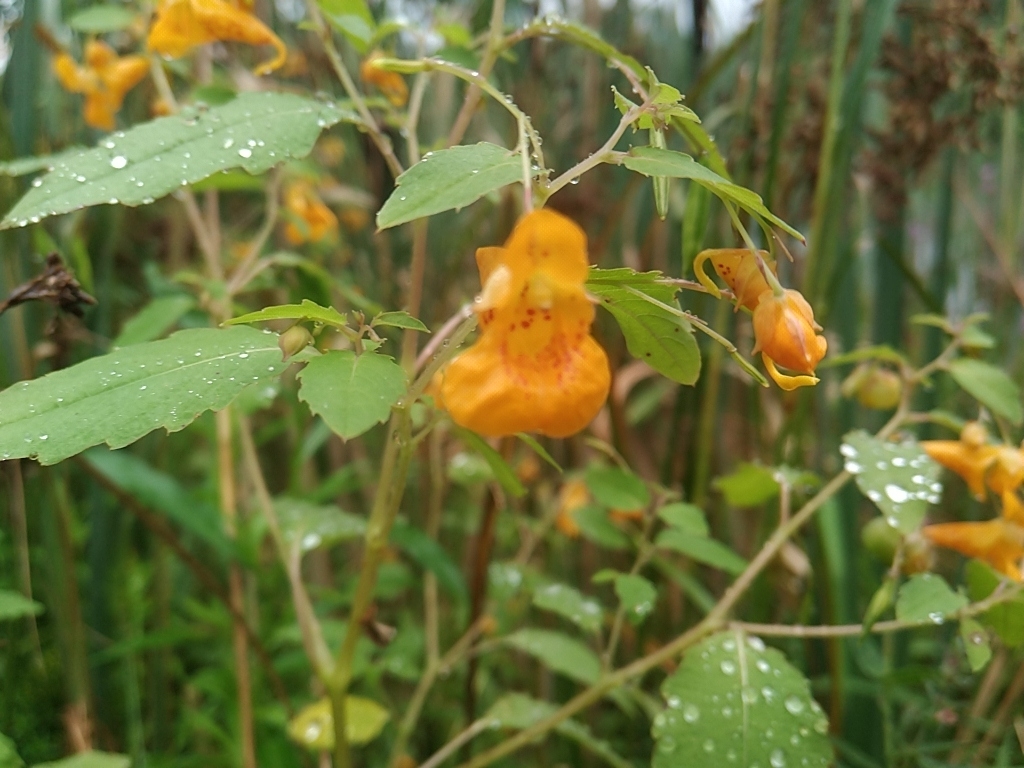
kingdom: Plantae
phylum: Tracheophyta
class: Magnoliopsida
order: Ericales
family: Balsaminaceae
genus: Impatiens
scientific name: Impatiens capensis
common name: Orange balsam
